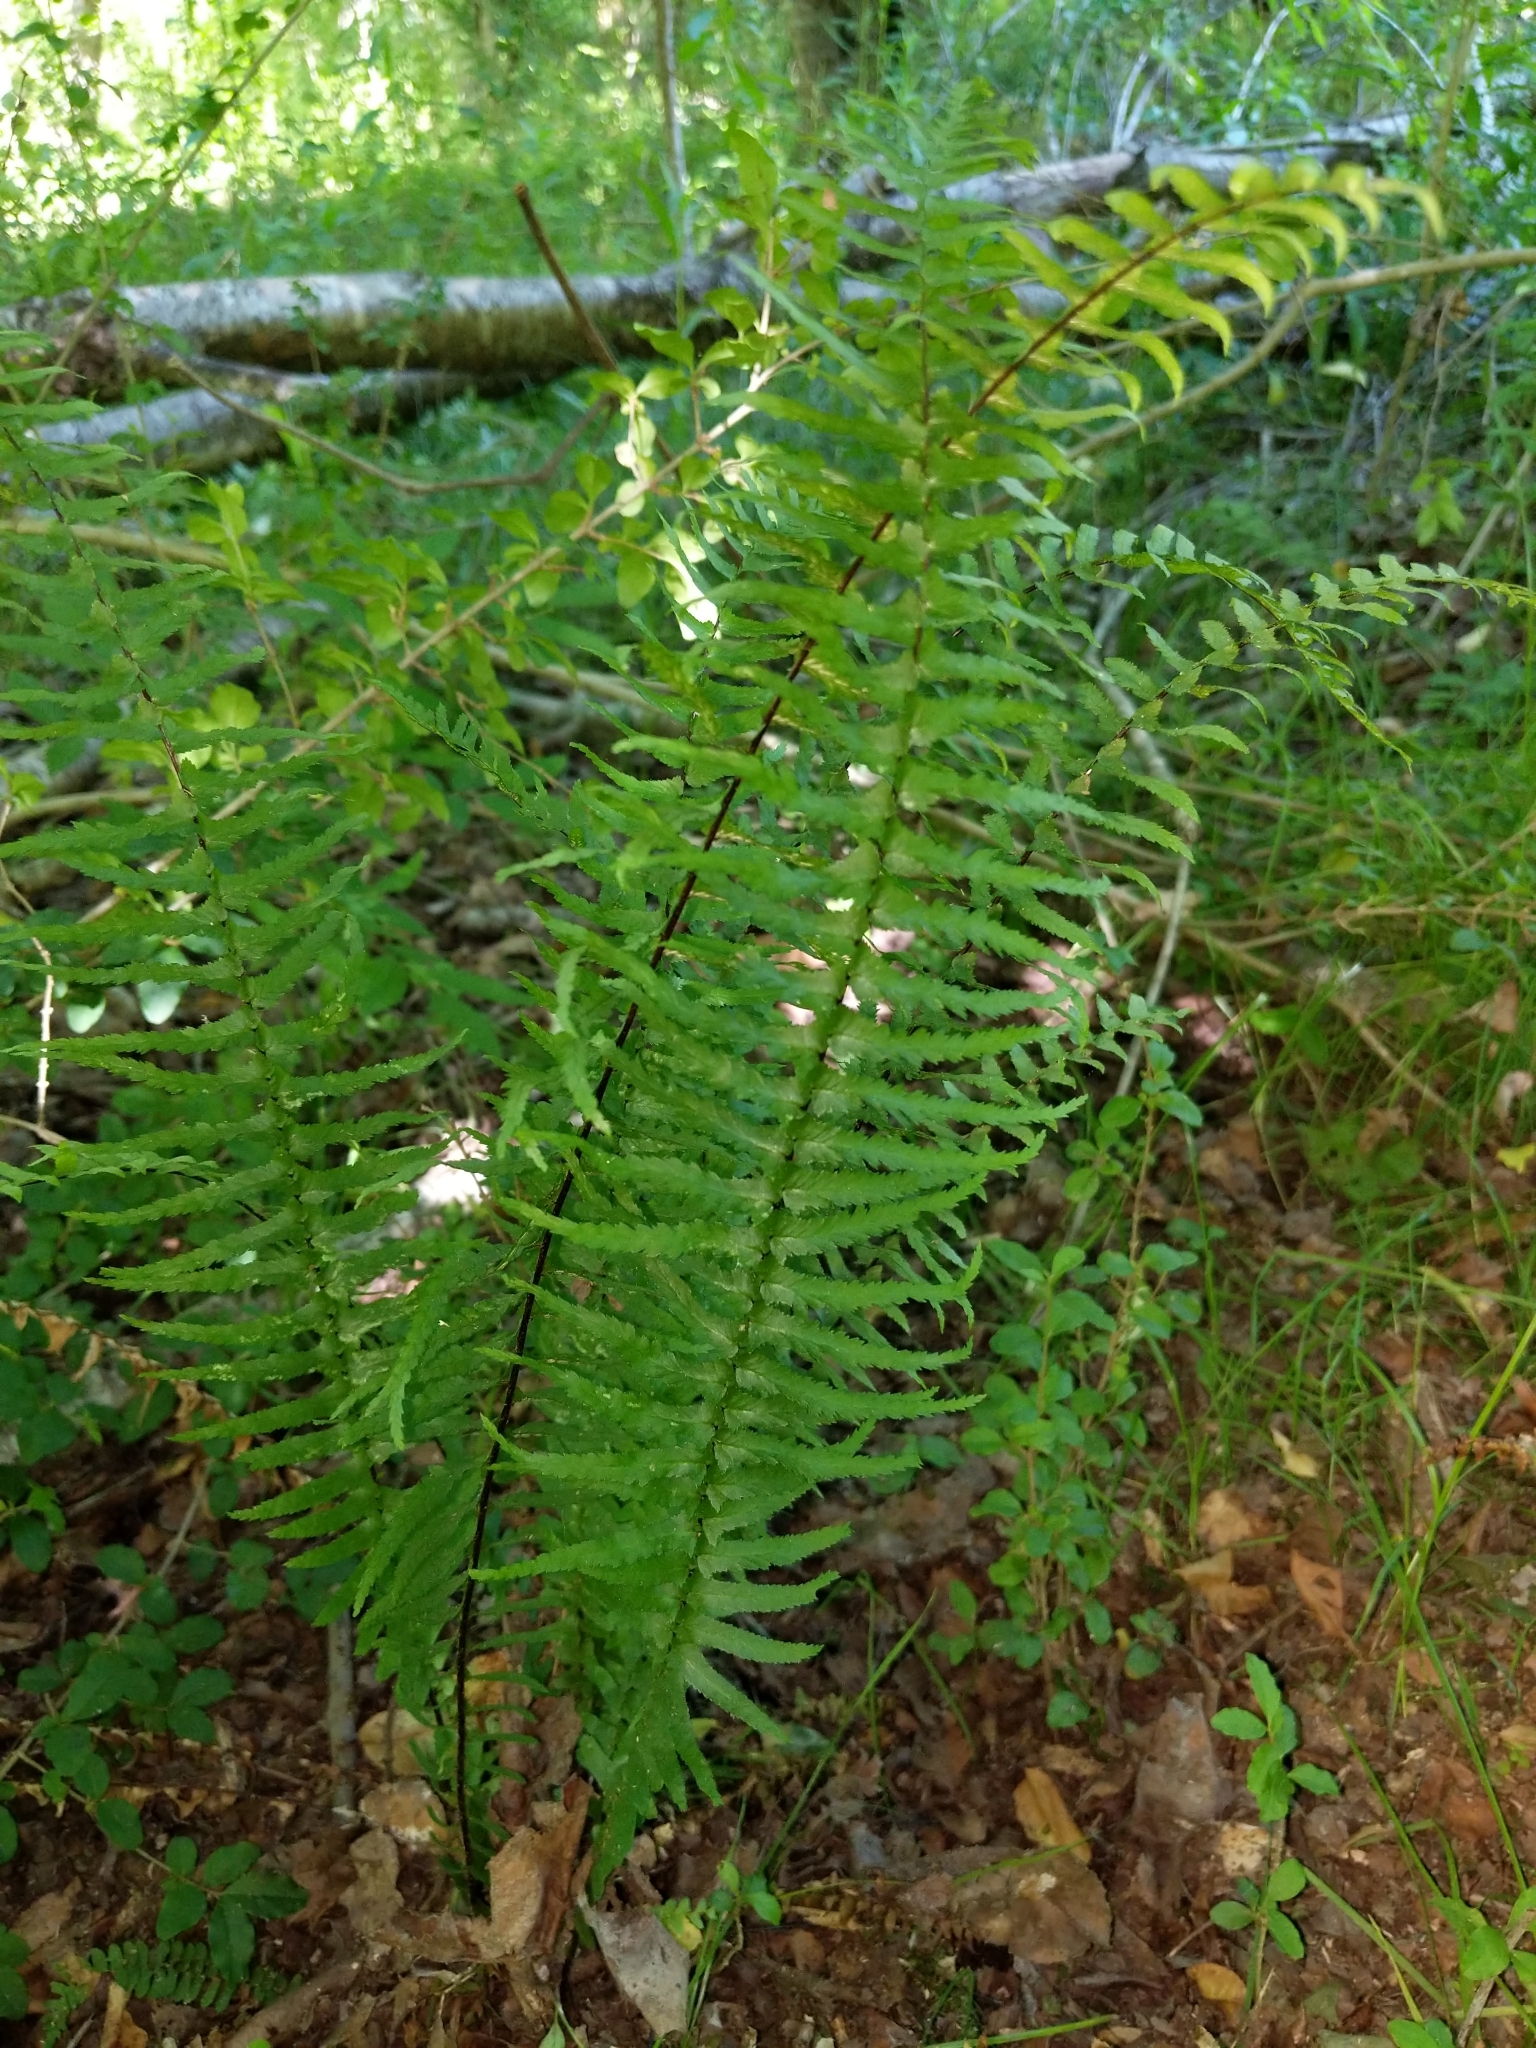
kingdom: Plantae
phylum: Tracheophyta
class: Polypodiopsida
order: Polypodiales
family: Aspleniaceae
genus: Asplenium
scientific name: Asplenium platyneuron
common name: Ebony spleenwort
